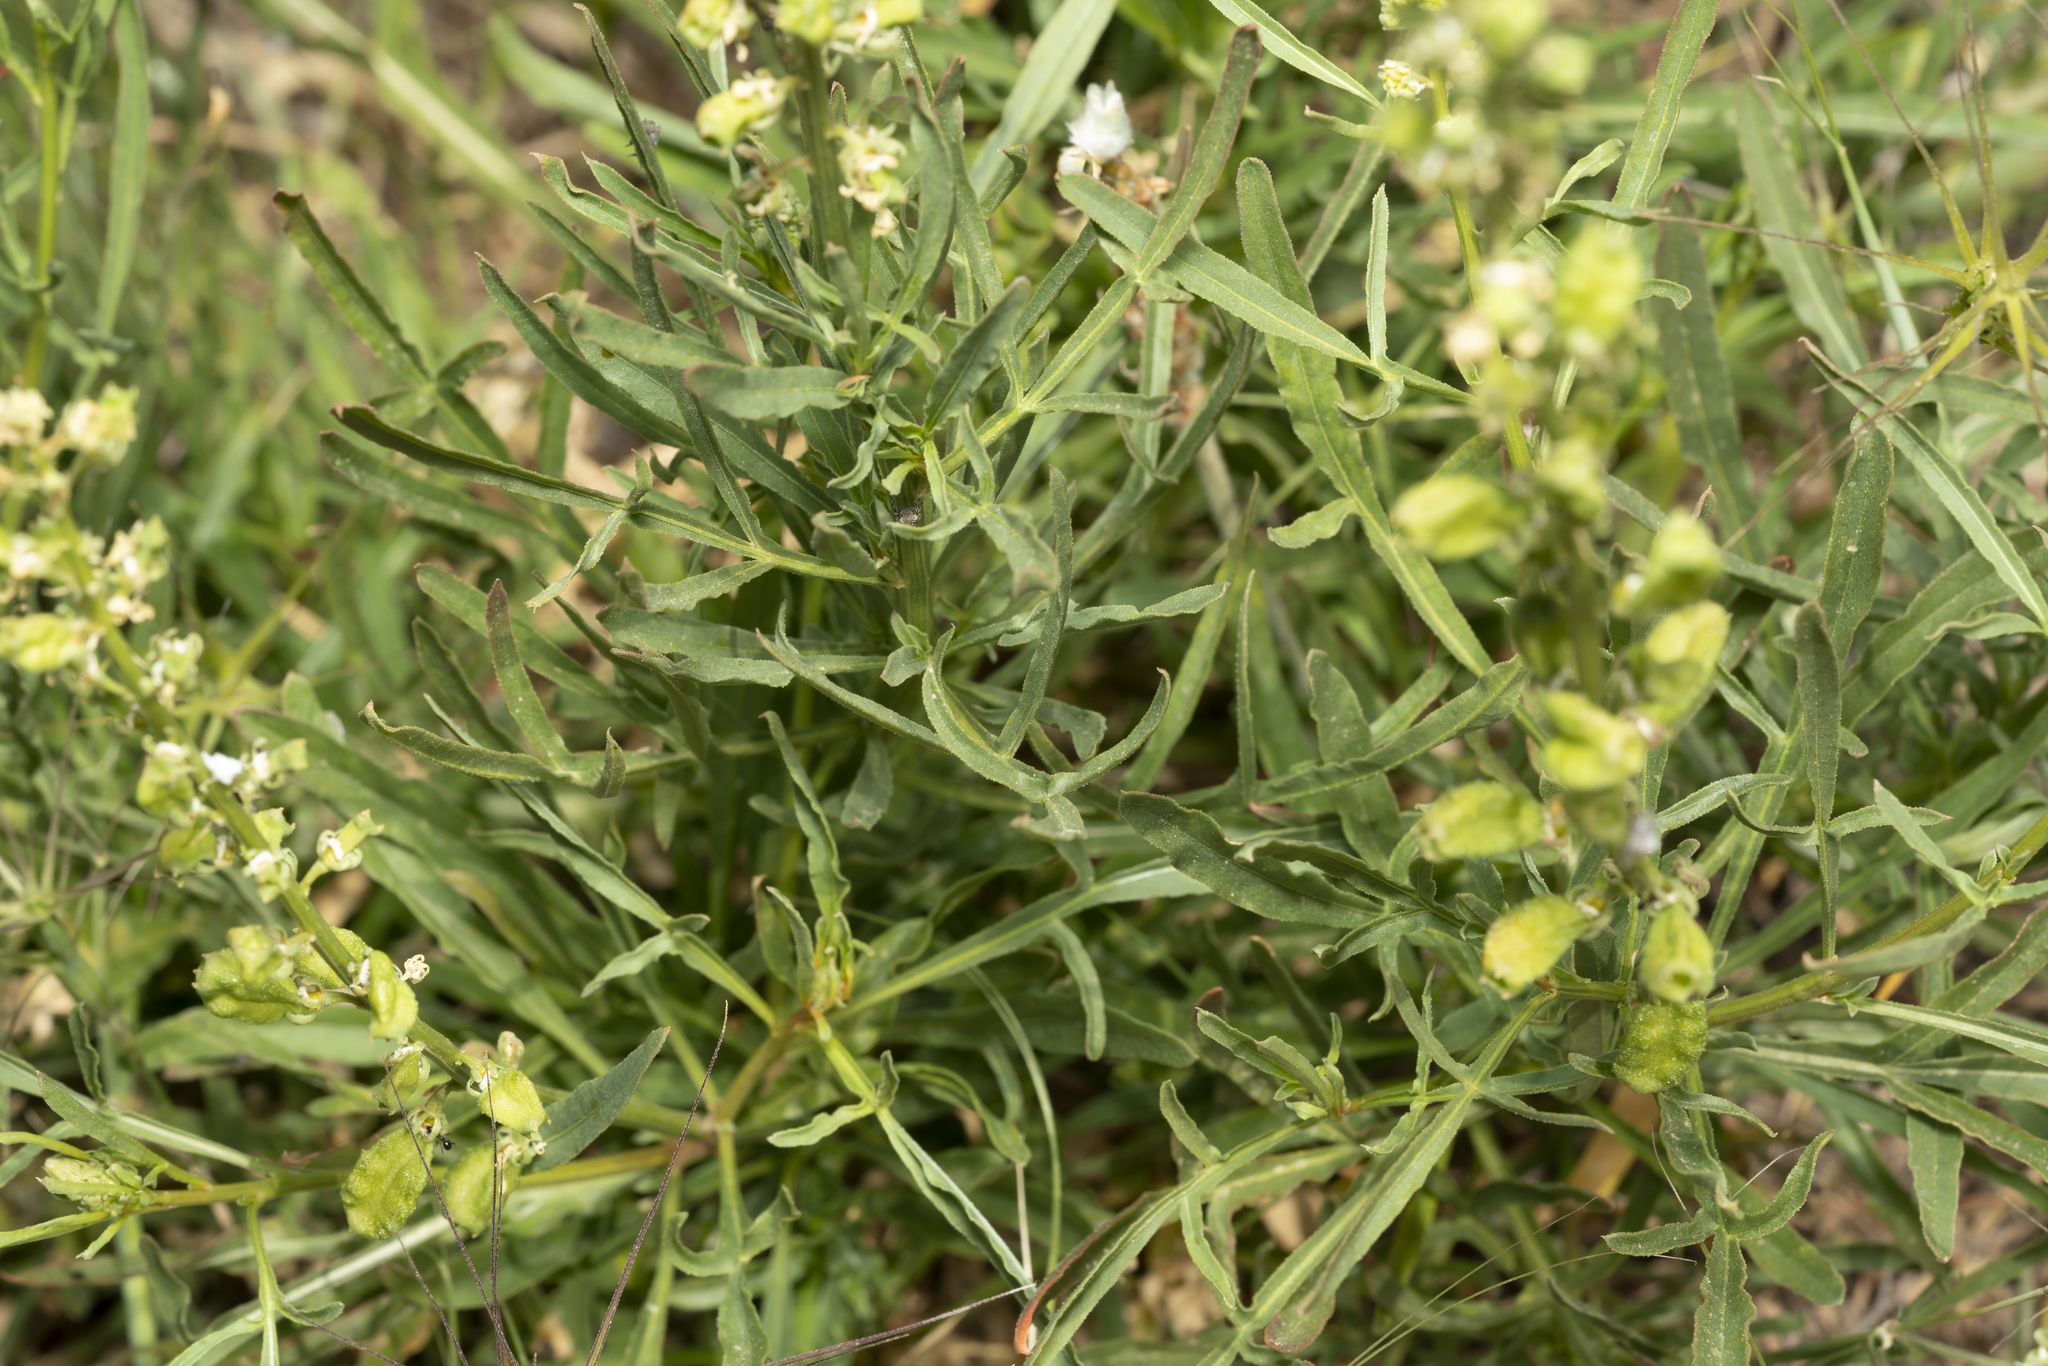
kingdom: Plantae
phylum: Tracheophyta
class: Magnoliopsida
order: Brassicales
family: Resedaceae
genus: Reseda
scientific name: Reseda lutea
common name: Wild mignonette
